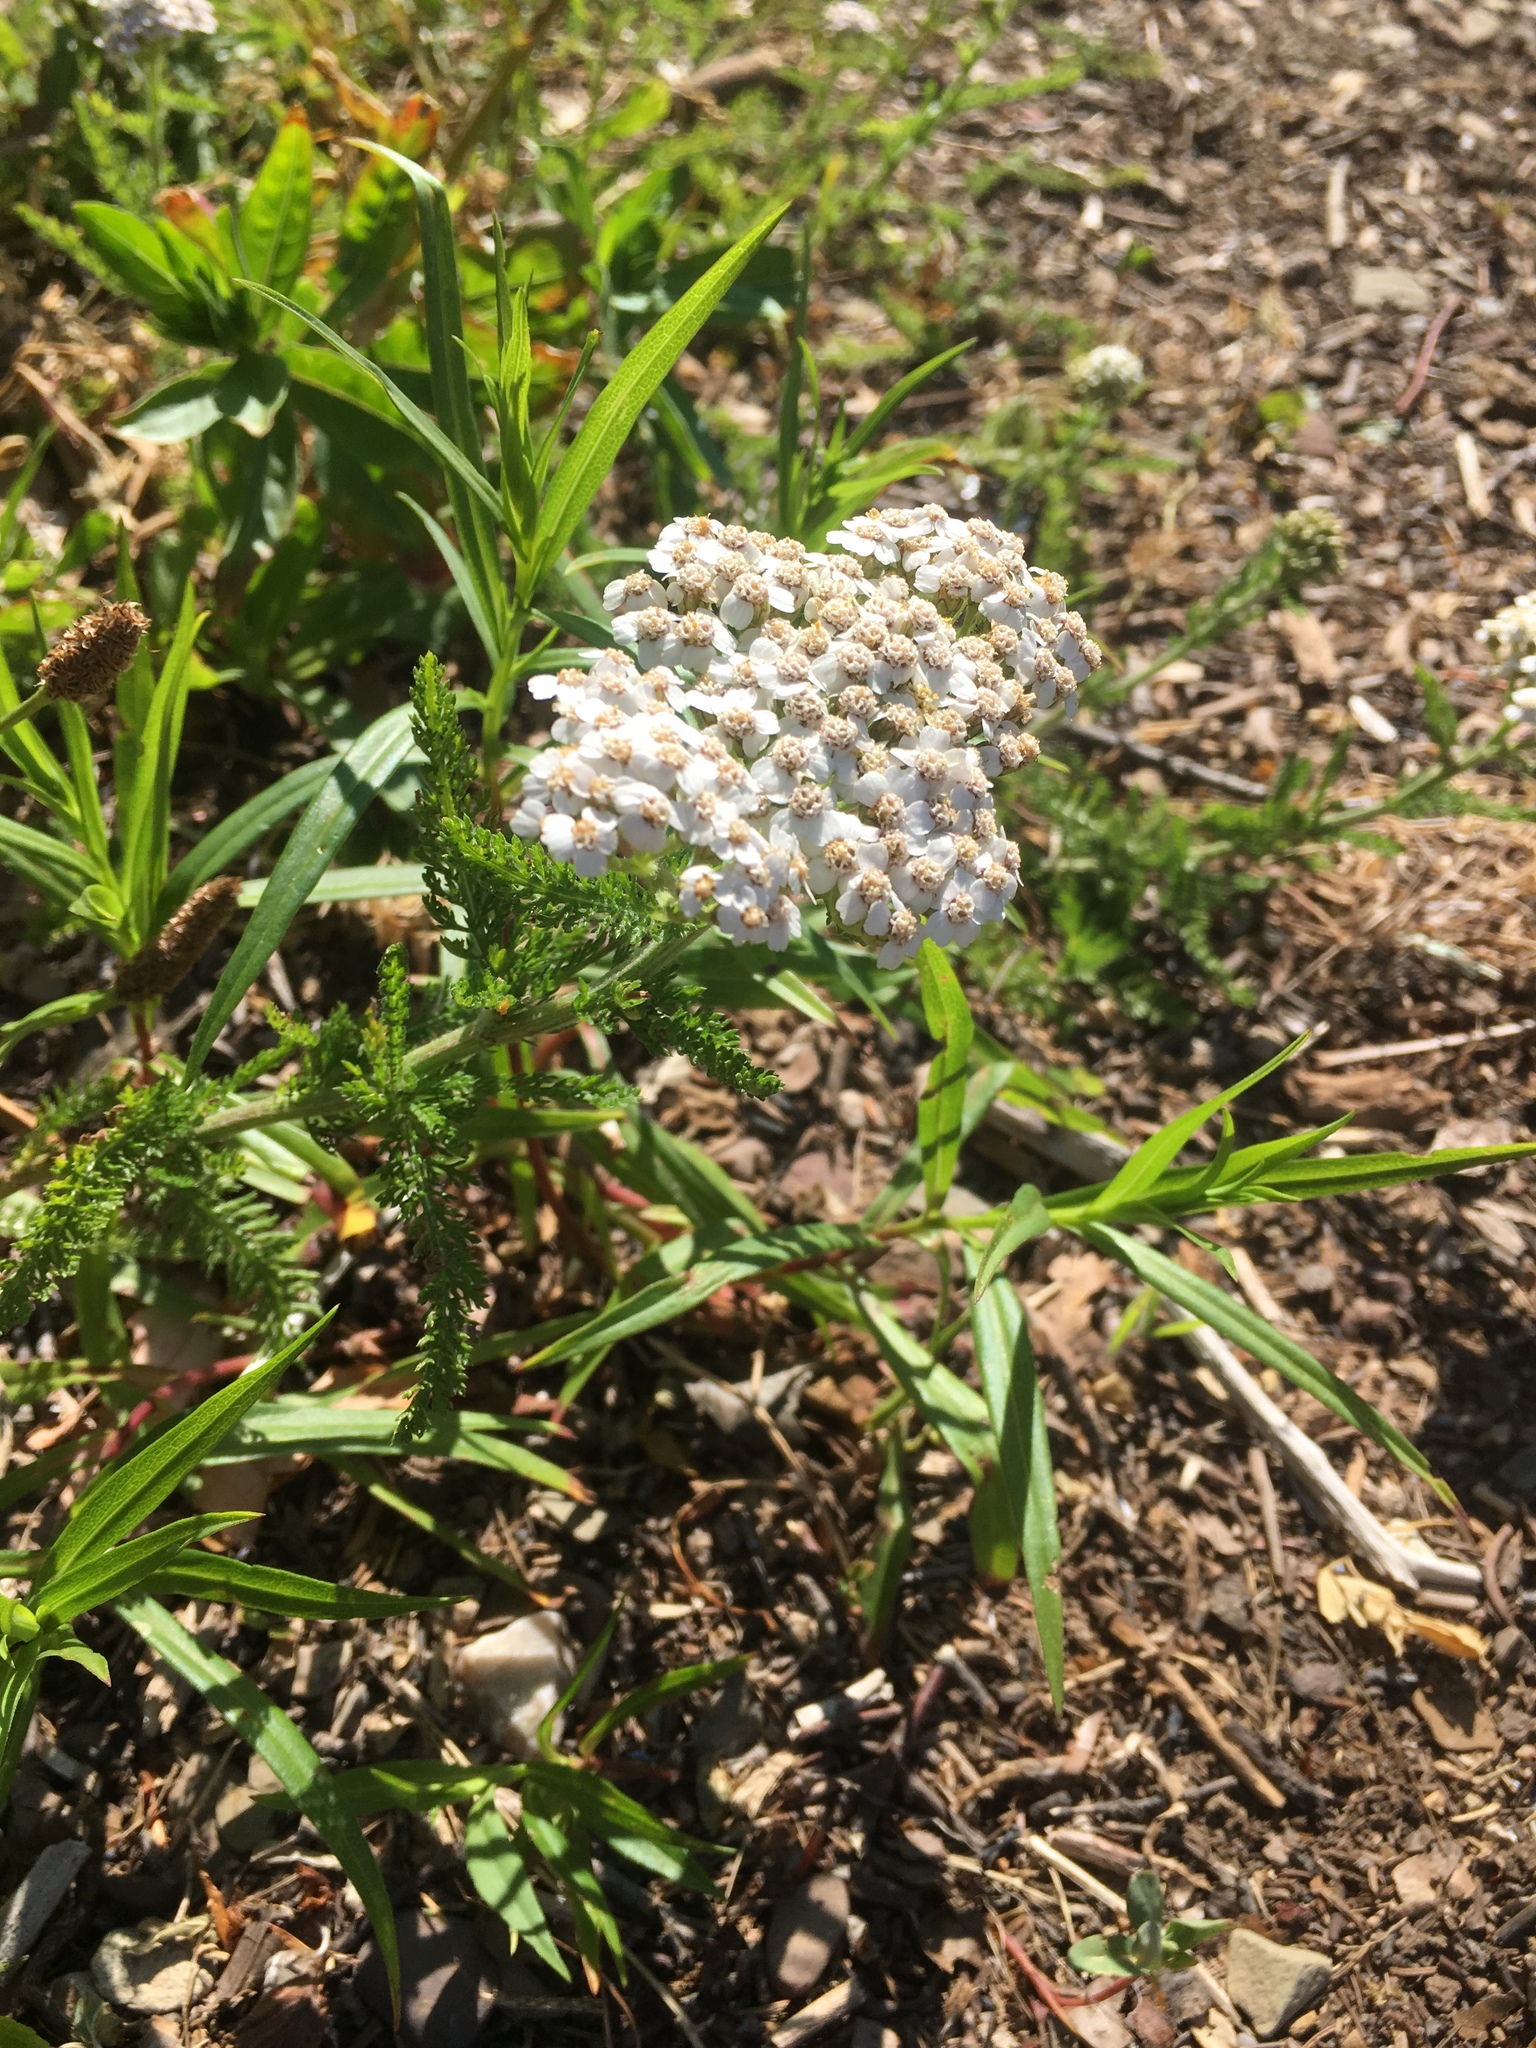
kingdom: Plantae
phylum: Tracheophyta
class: Magnoliopsida
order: Asterales
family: Asteraceae
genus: Achillea
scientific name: Achillea millefolium
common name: Yarrow
